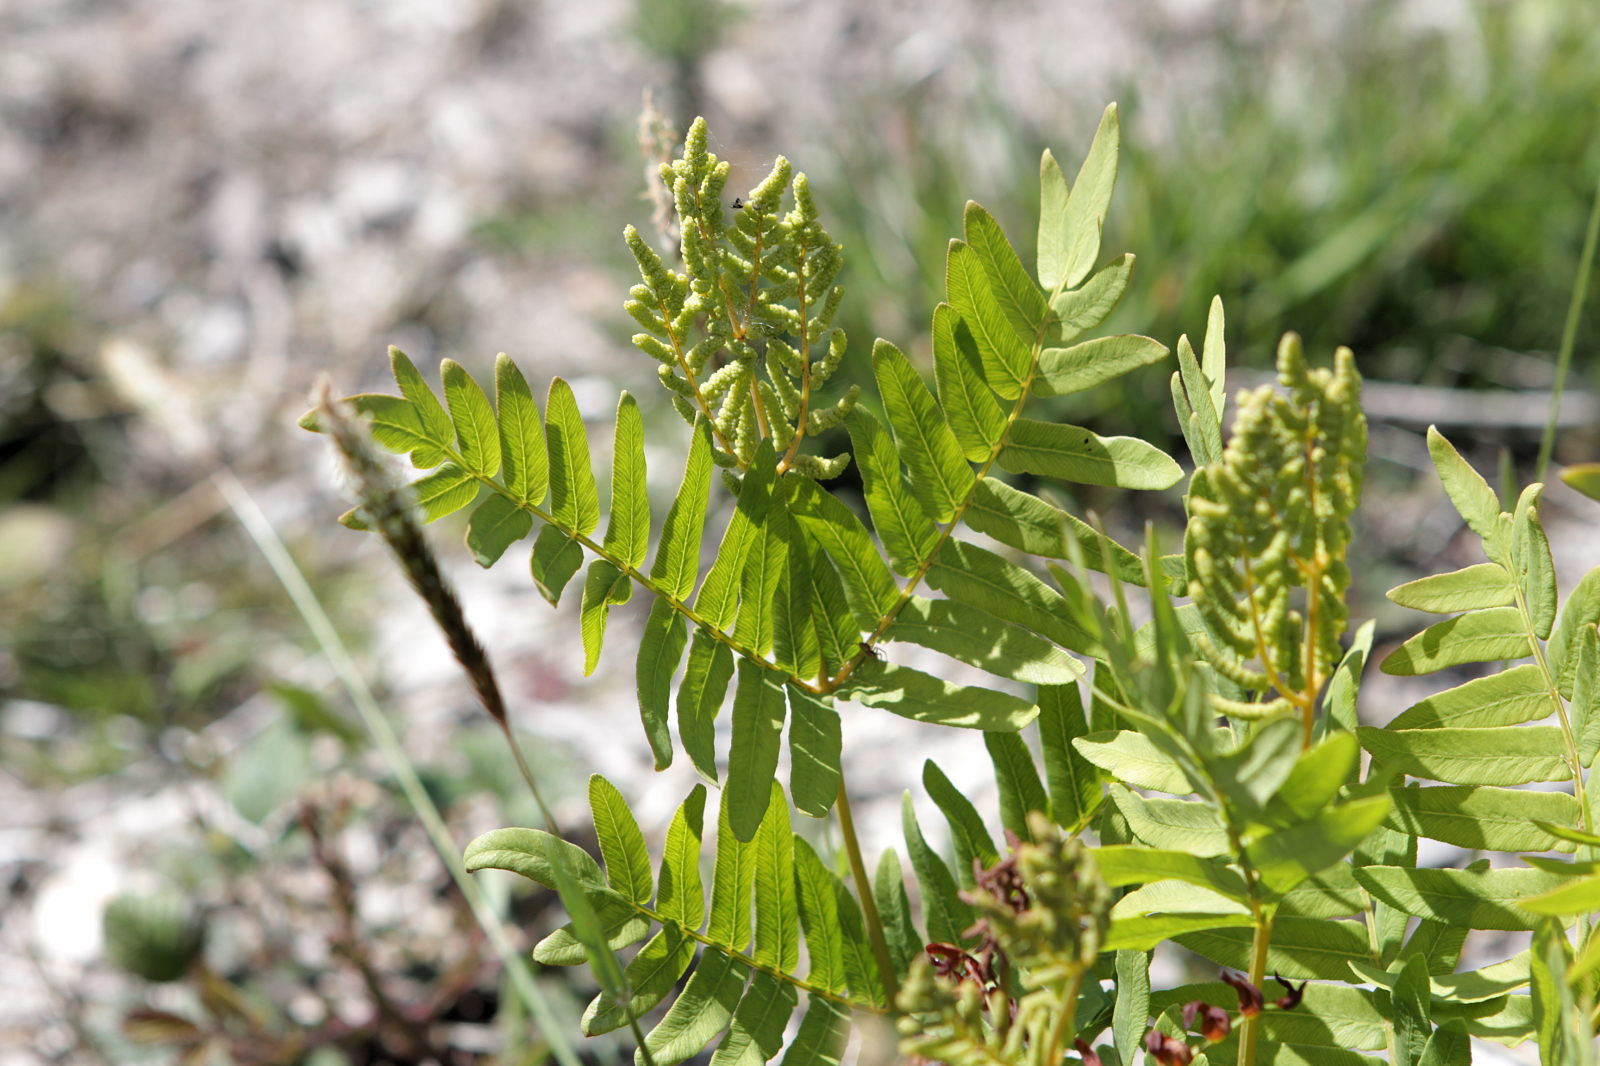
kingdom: Plantae
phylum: Tracheophyta
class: Polypodiopsida
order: Osmundales
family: Osmundaceae
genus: Osmunda
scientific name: Osmunda regalis
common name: Royal fern
